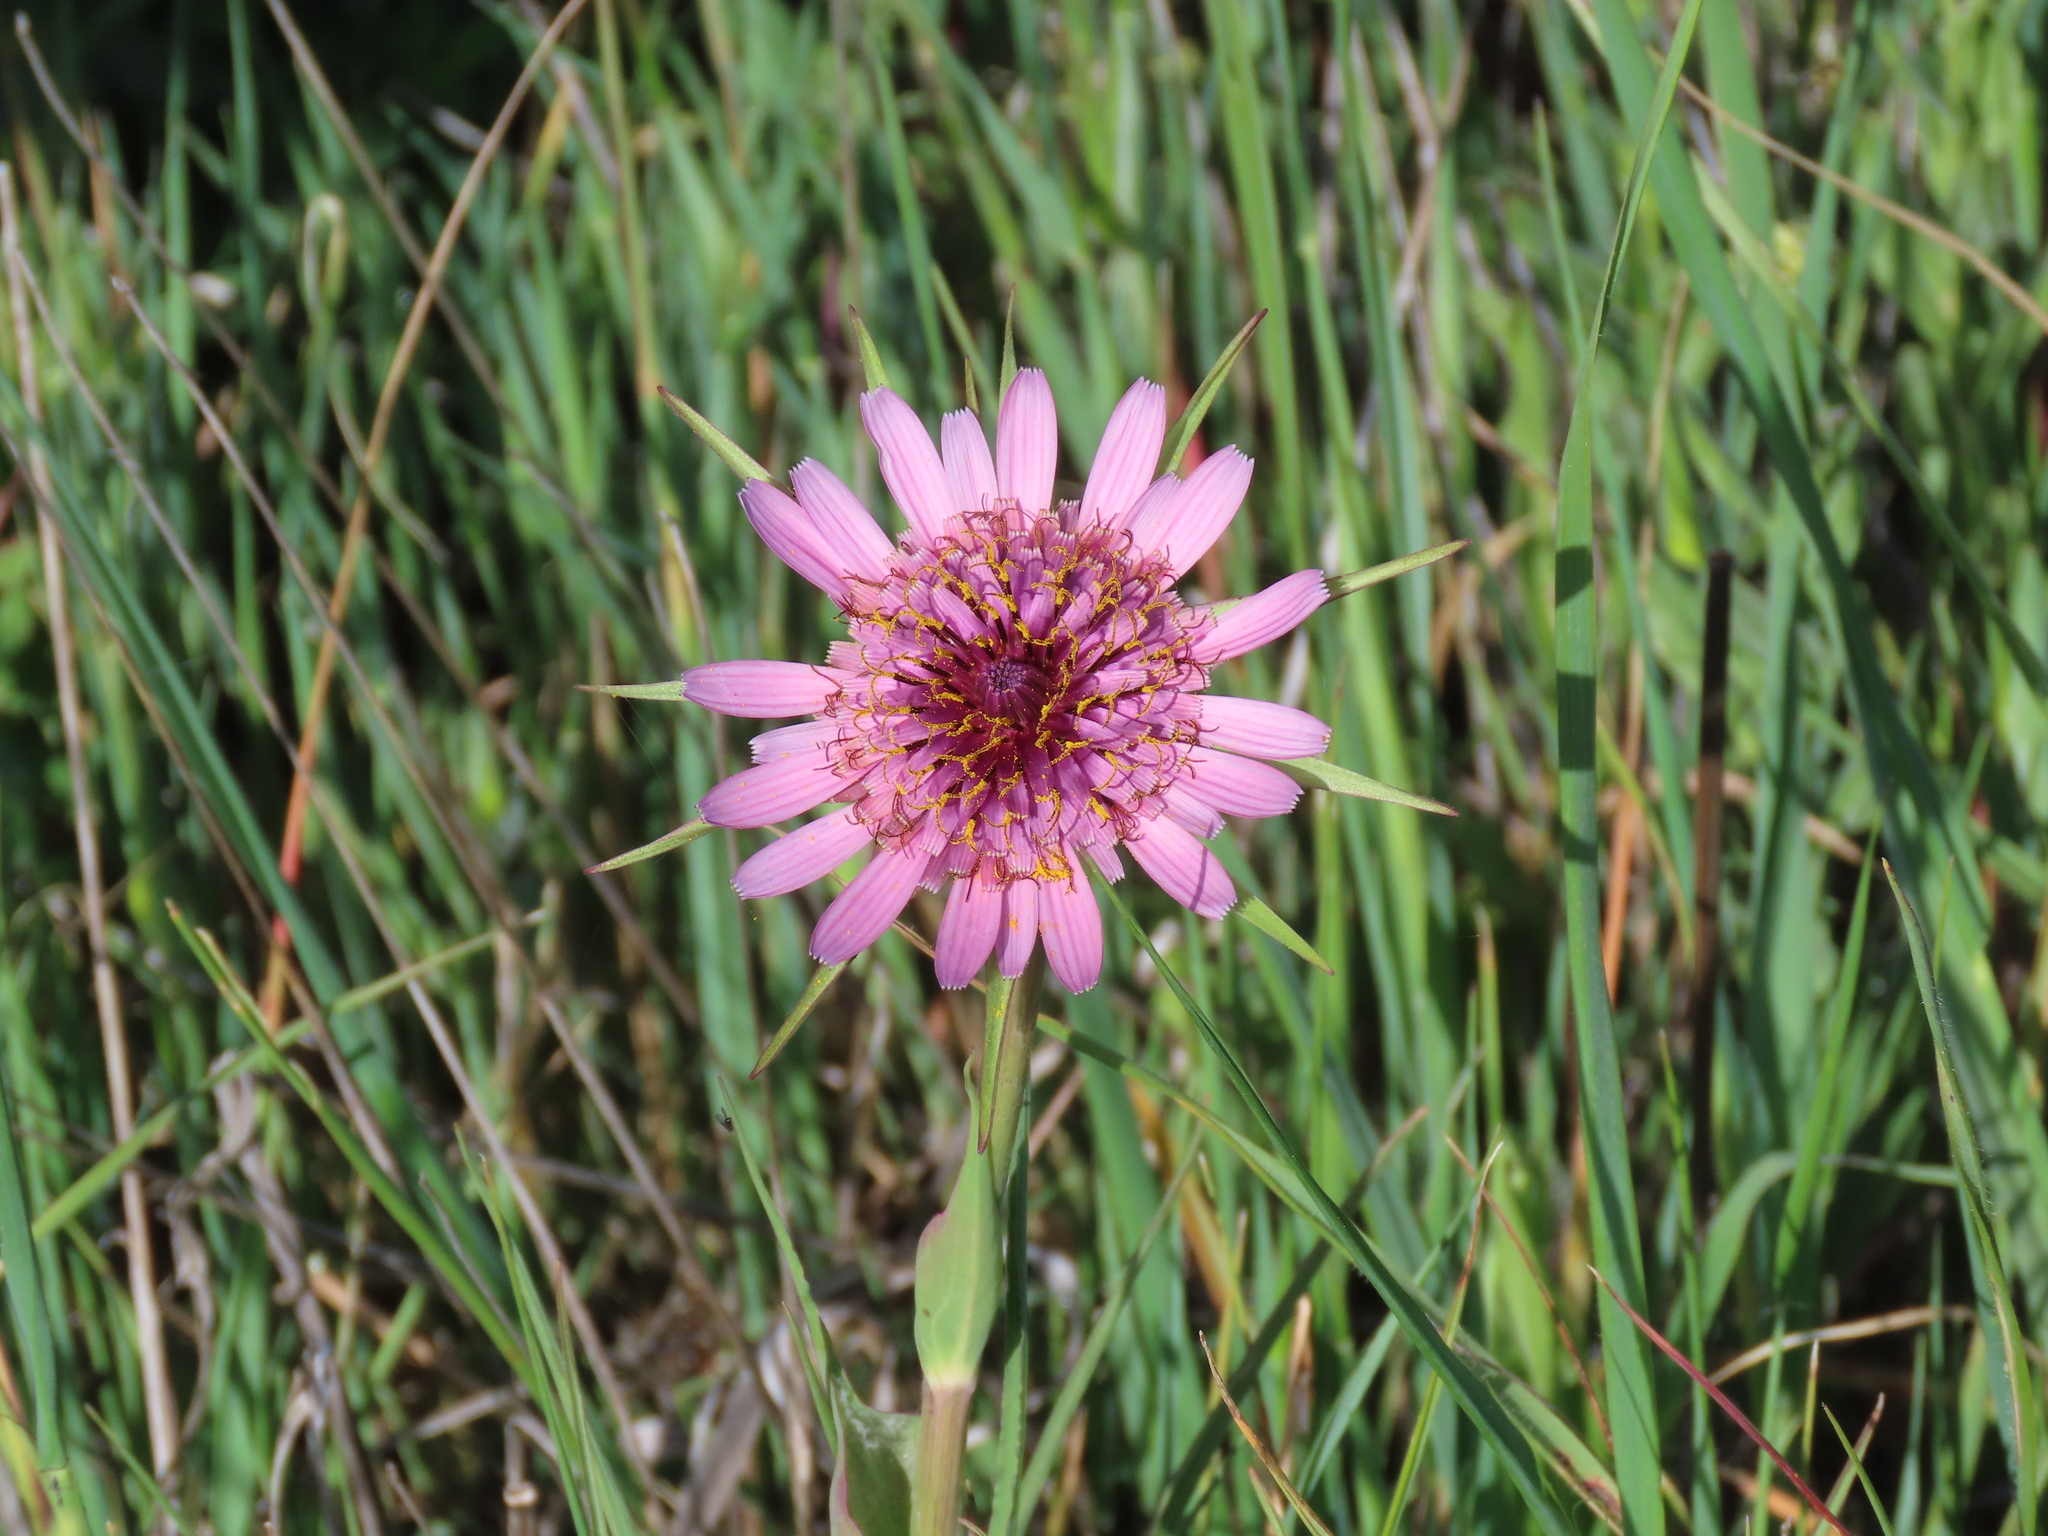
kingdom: Plantae
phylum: Tracheophyta
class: Magnoliopsida
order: Asterales
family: Asteraceae
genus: Tragopogon
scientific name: Tragopogon porrifolius
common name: Salsify
